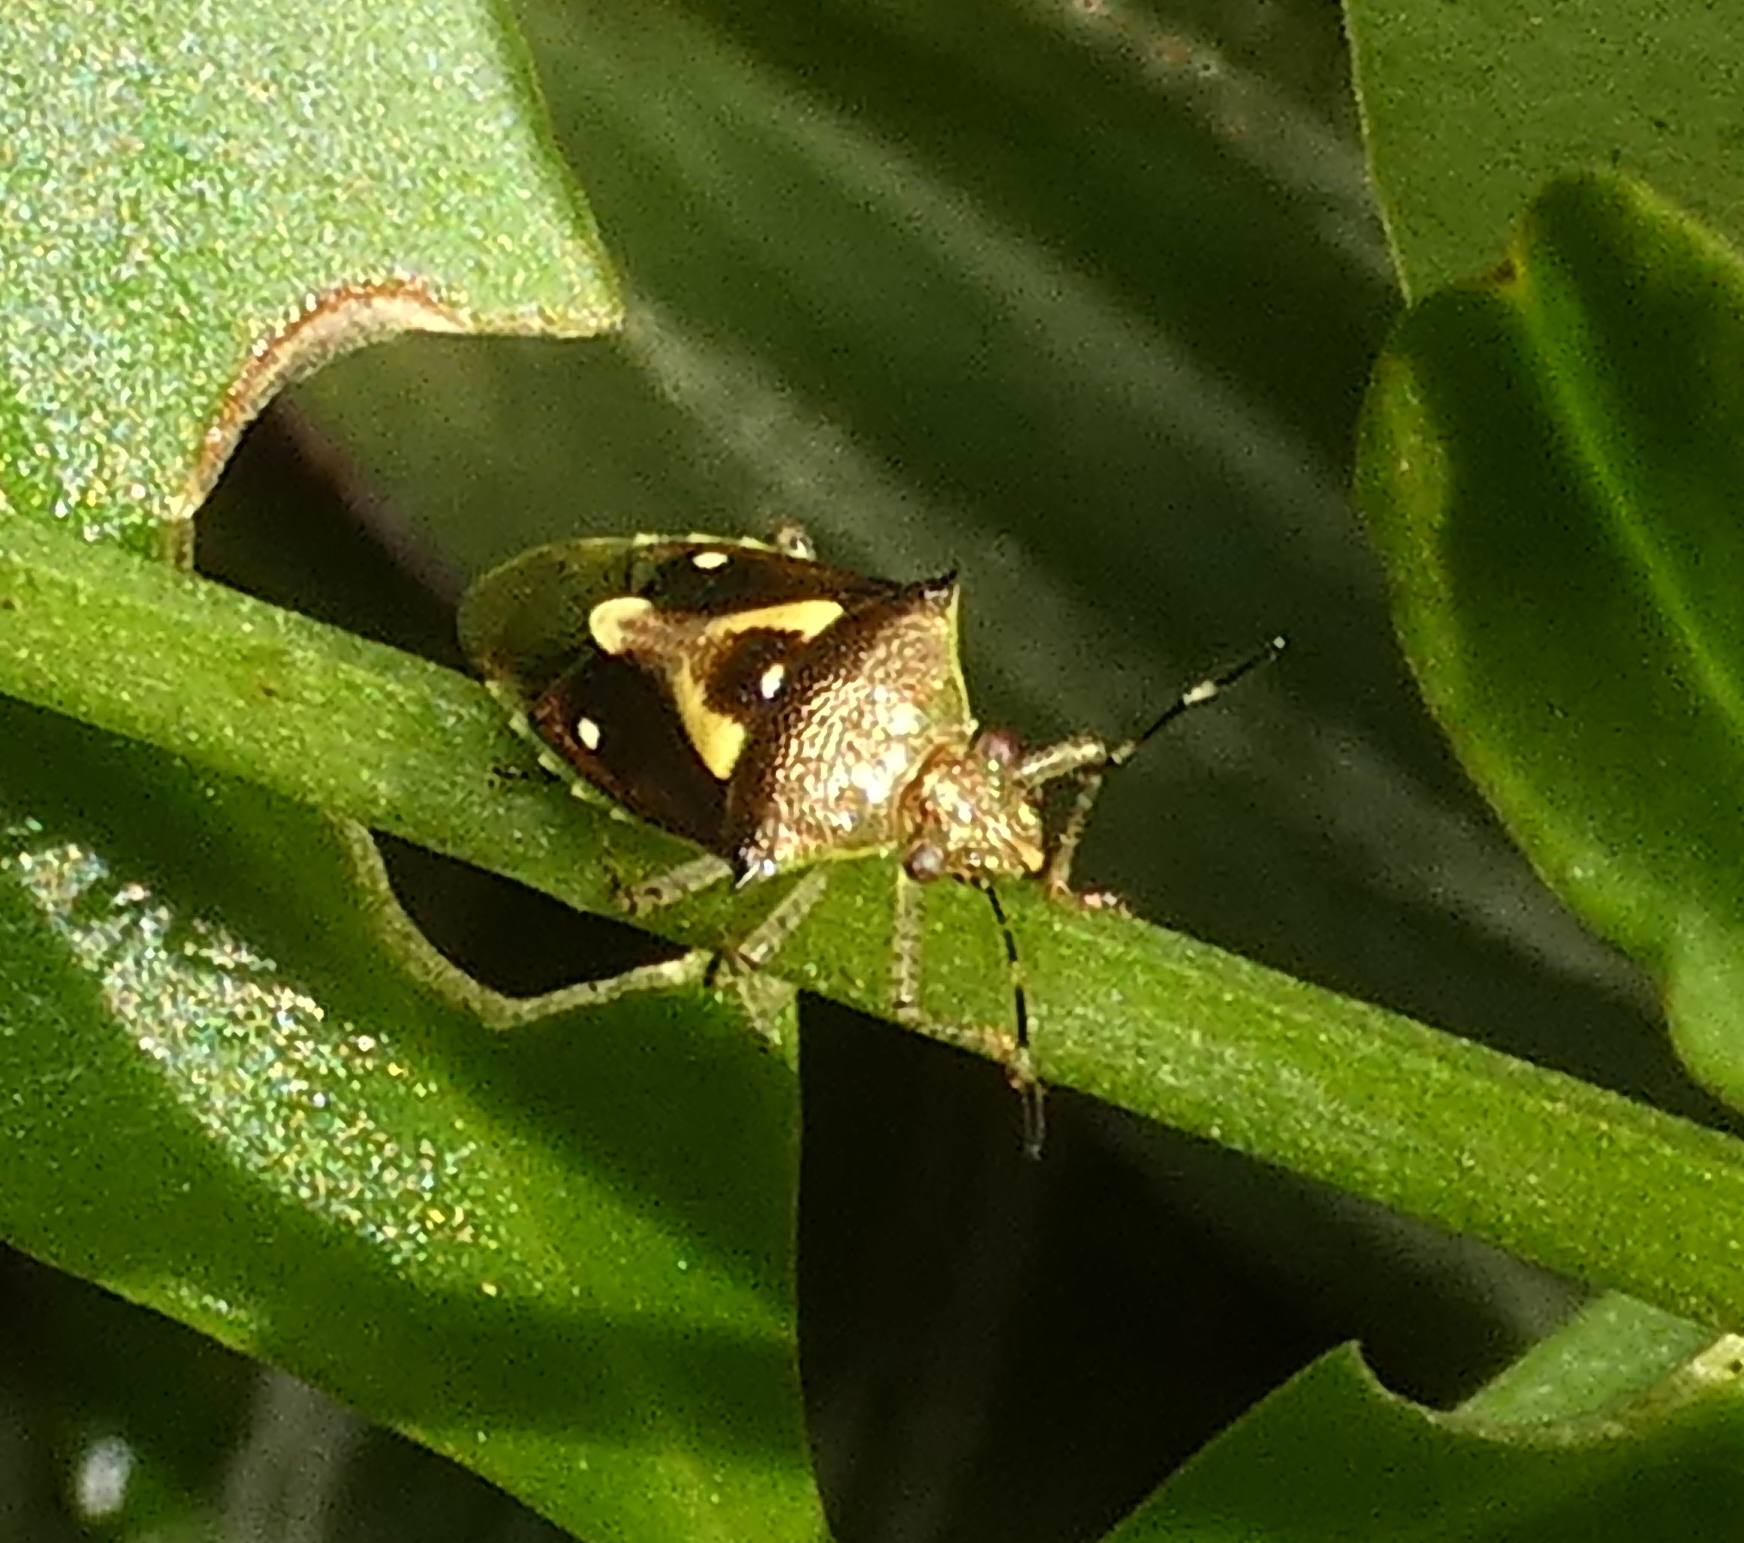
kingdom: Animalia
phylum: Arthropoda
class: Insecta
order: Hemiptera
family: Pentatomidae
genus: Mormidea
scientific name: Mormidea ypsilon
